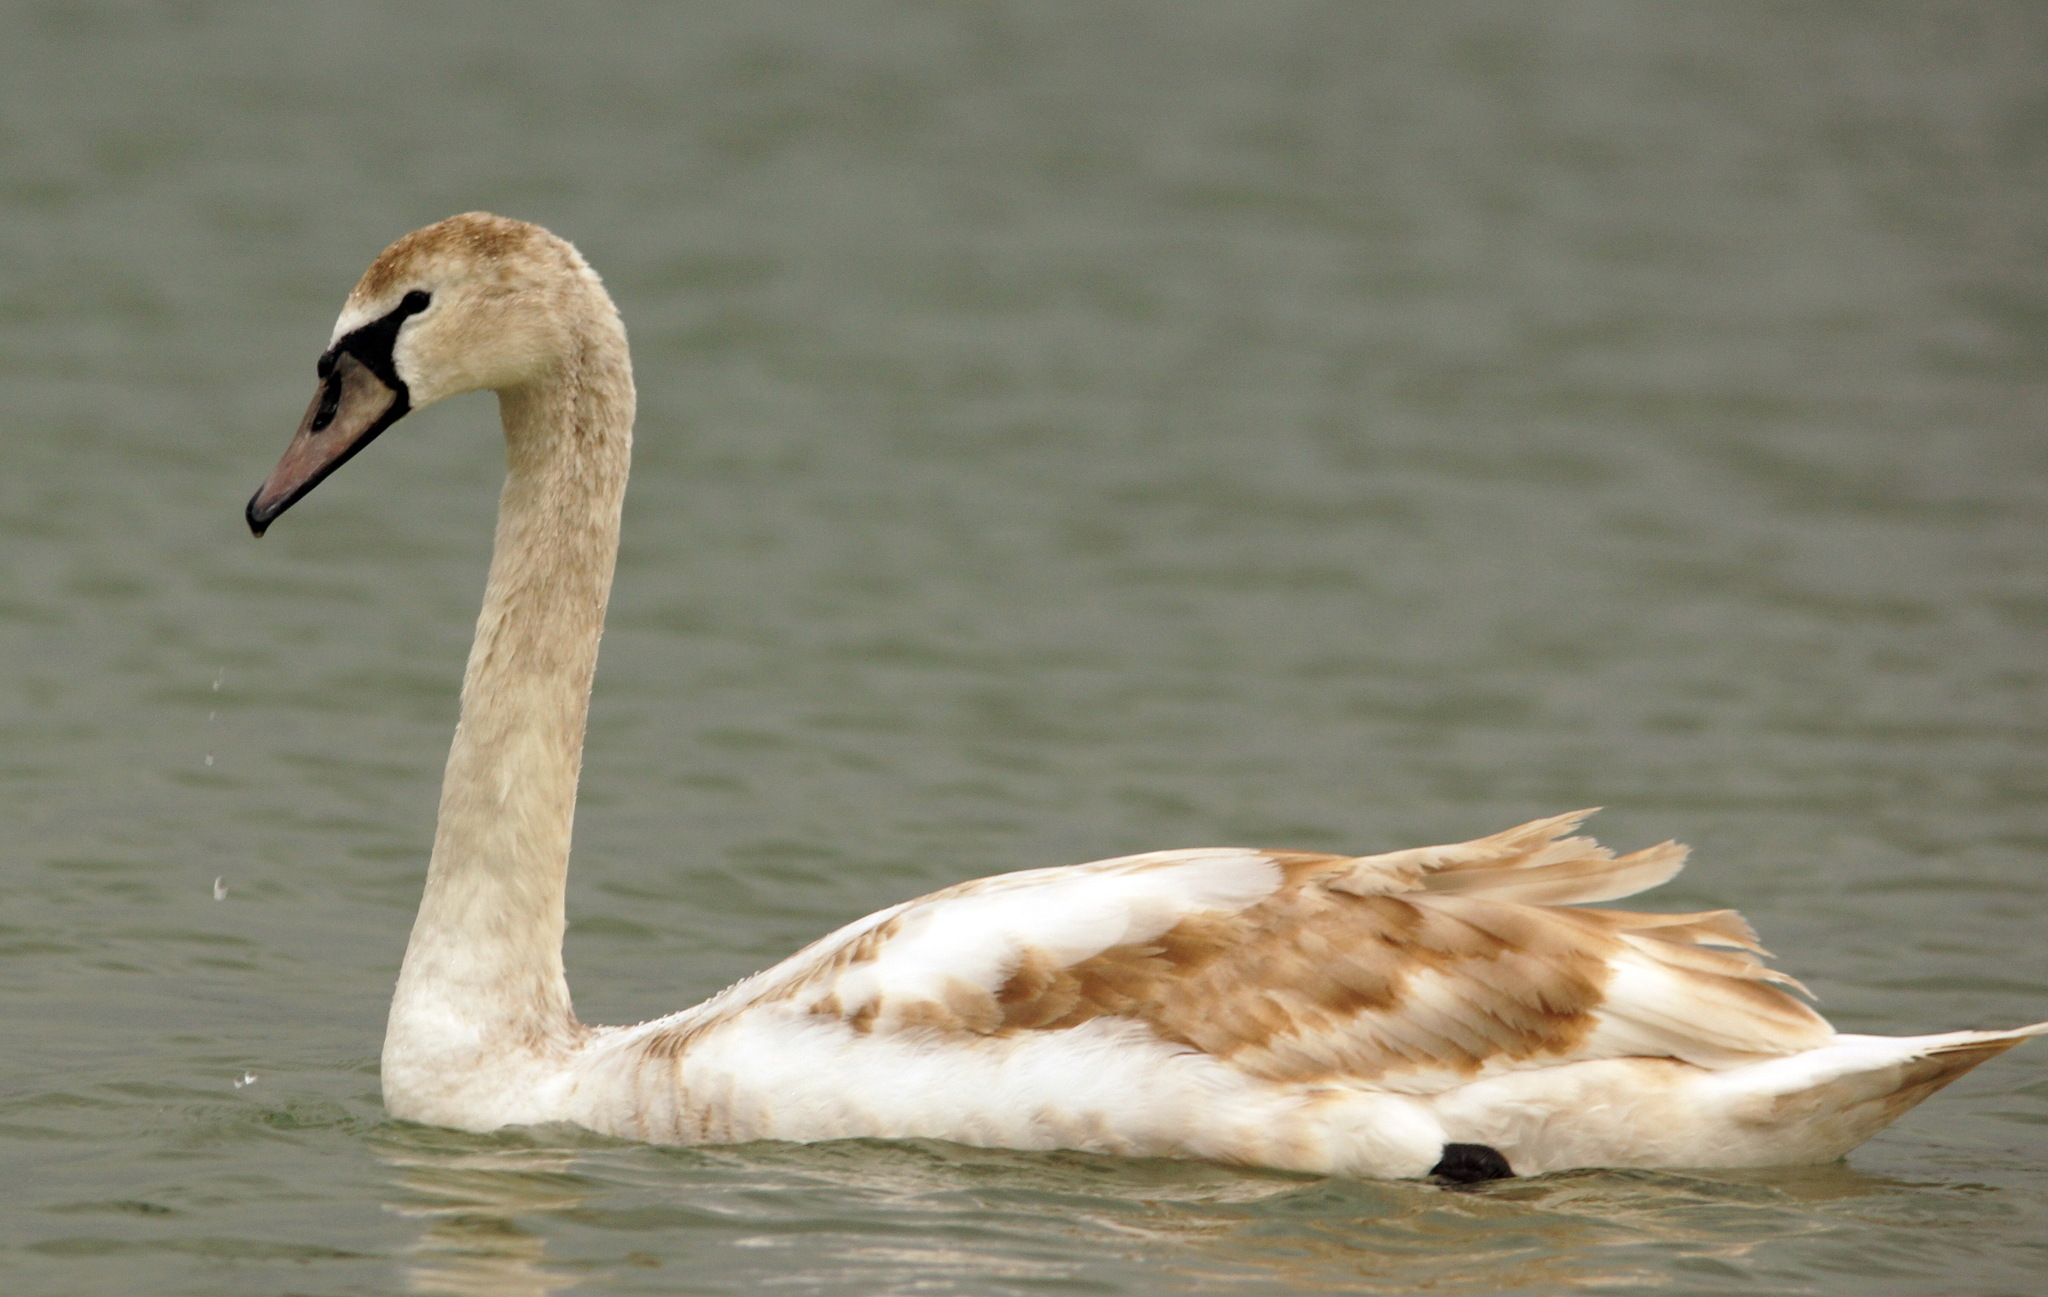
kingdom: Animalia
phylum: Chordata
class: Aves
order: Anseriformes
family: Anatidae
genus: Cygnus
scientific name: Cygnus olor
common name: Mute swan
